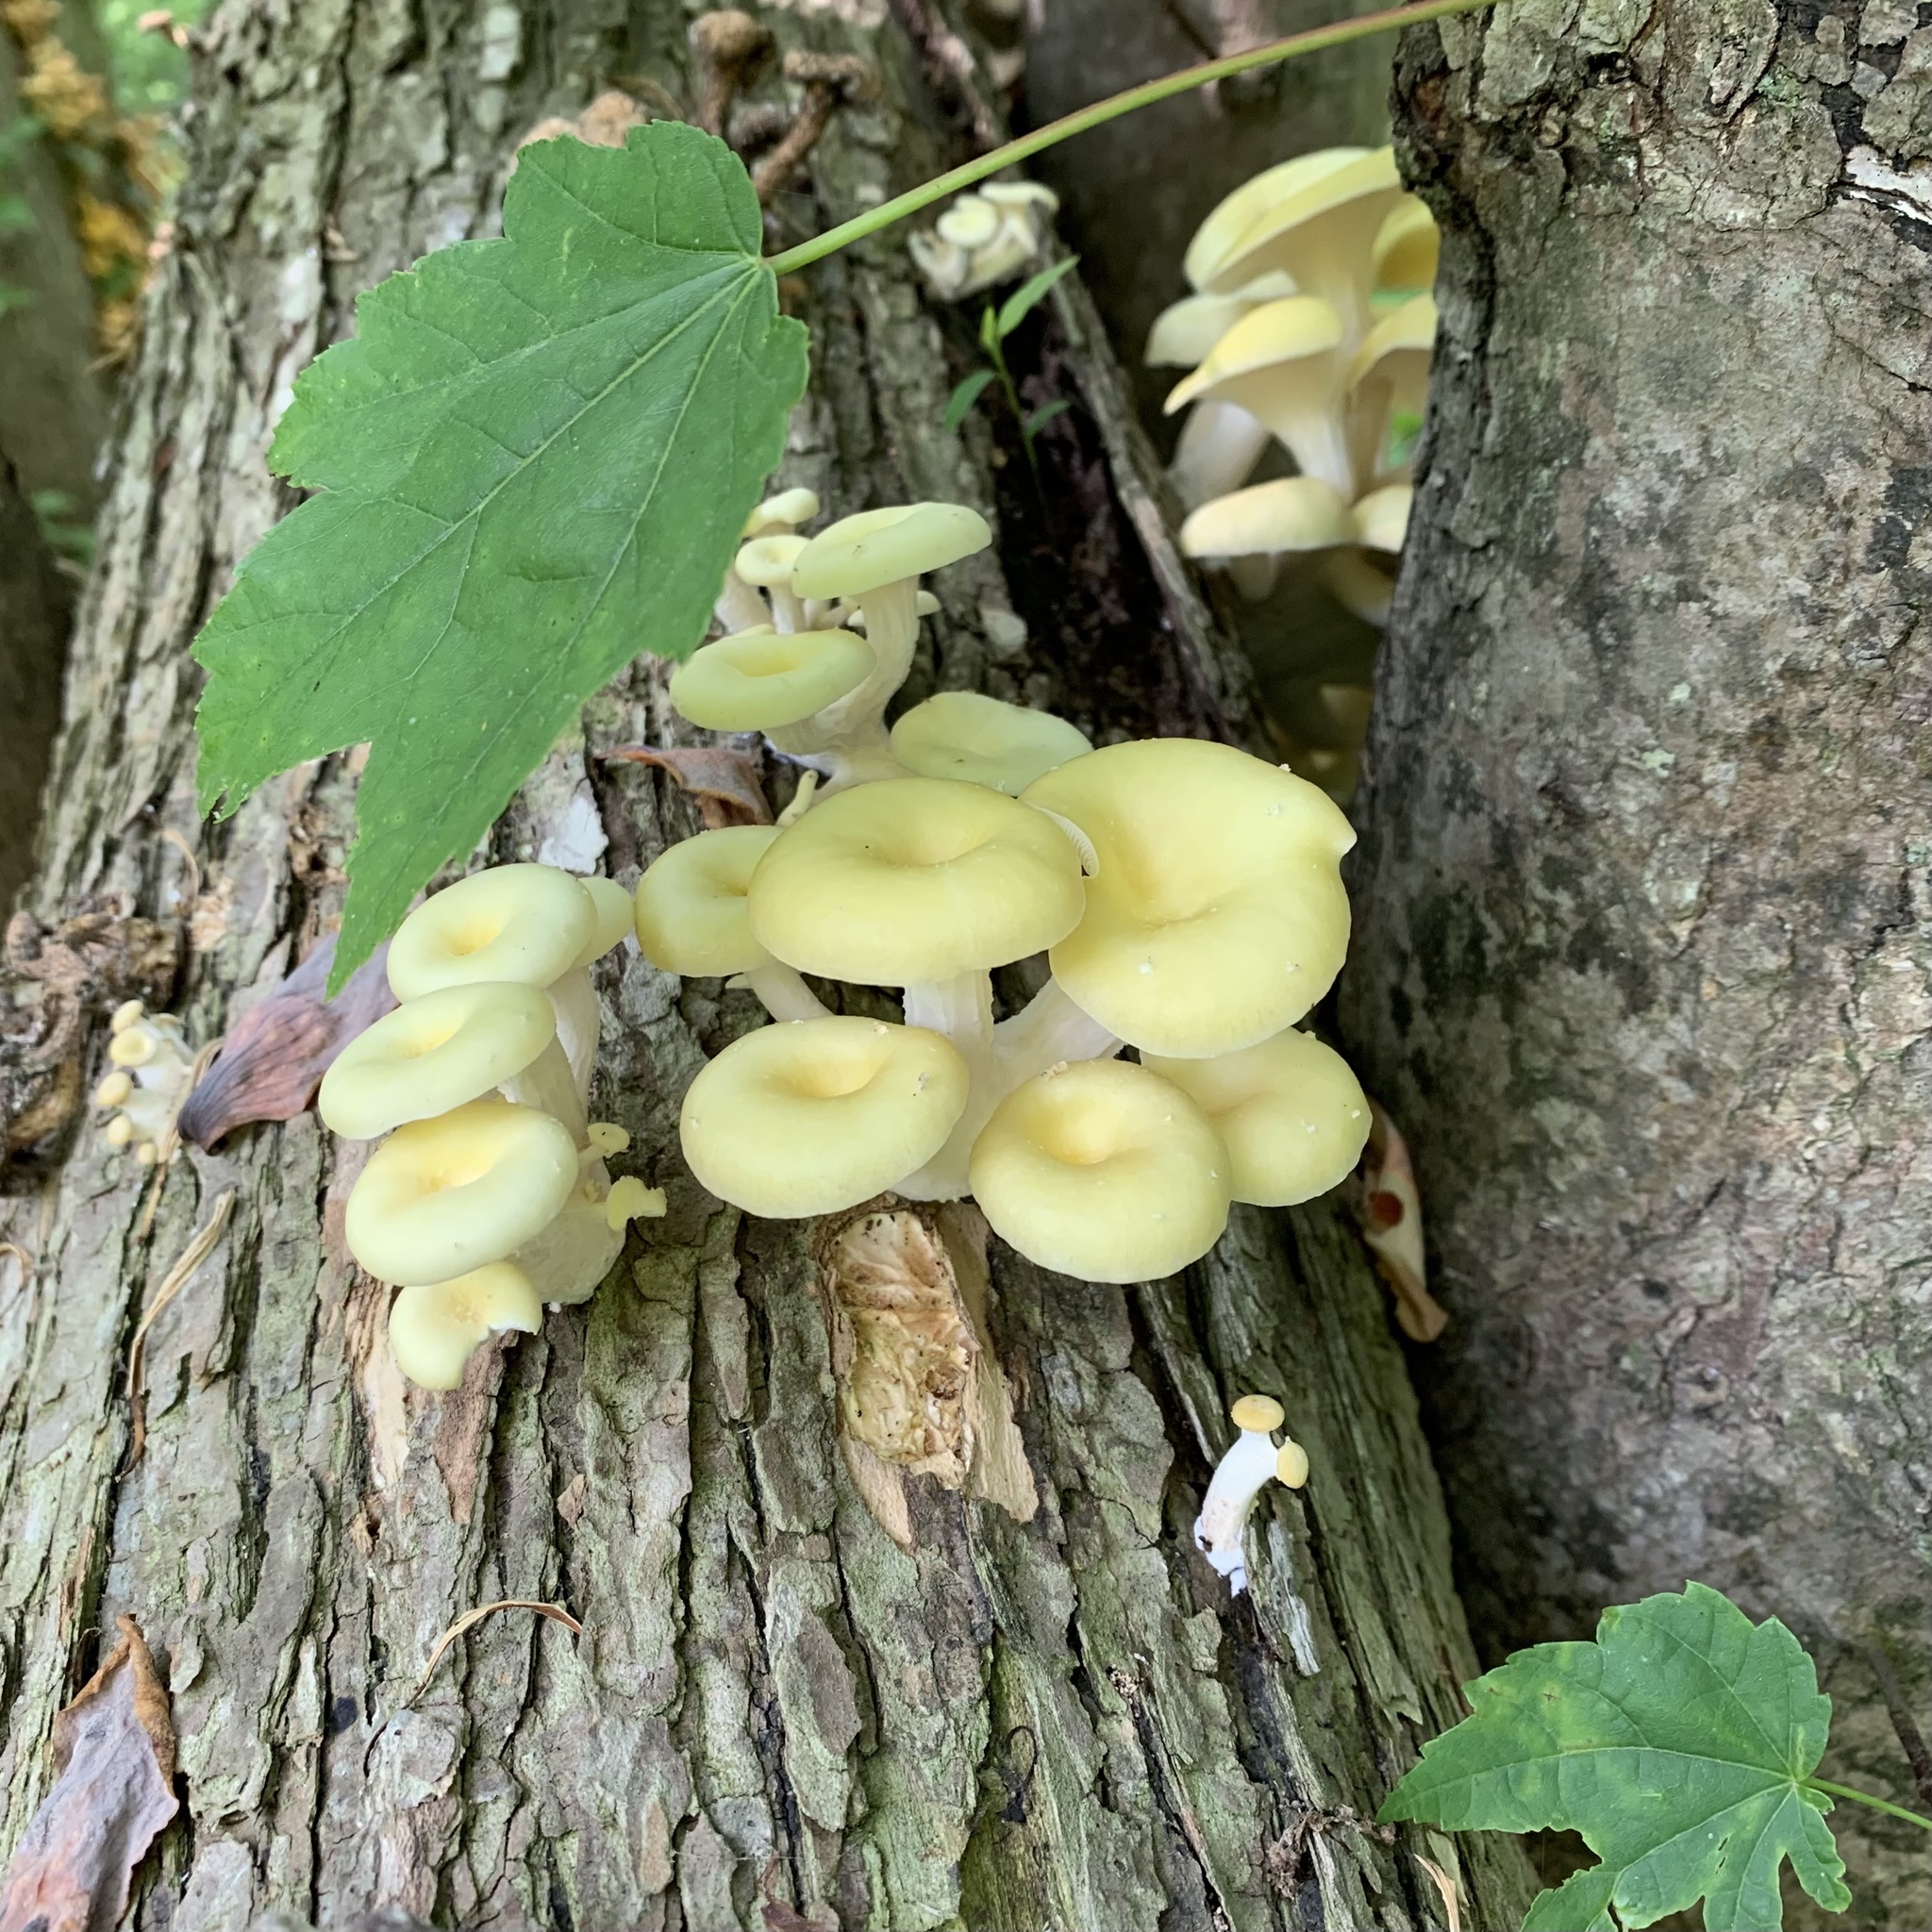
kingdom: Fungi
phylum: Basidiomycota
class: Agaricomycetes
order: Agaricales
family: Pleurotaceae
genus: Pleurotus
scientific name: Pleurotus citrinopileatus
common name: Golden oyster mushroom
